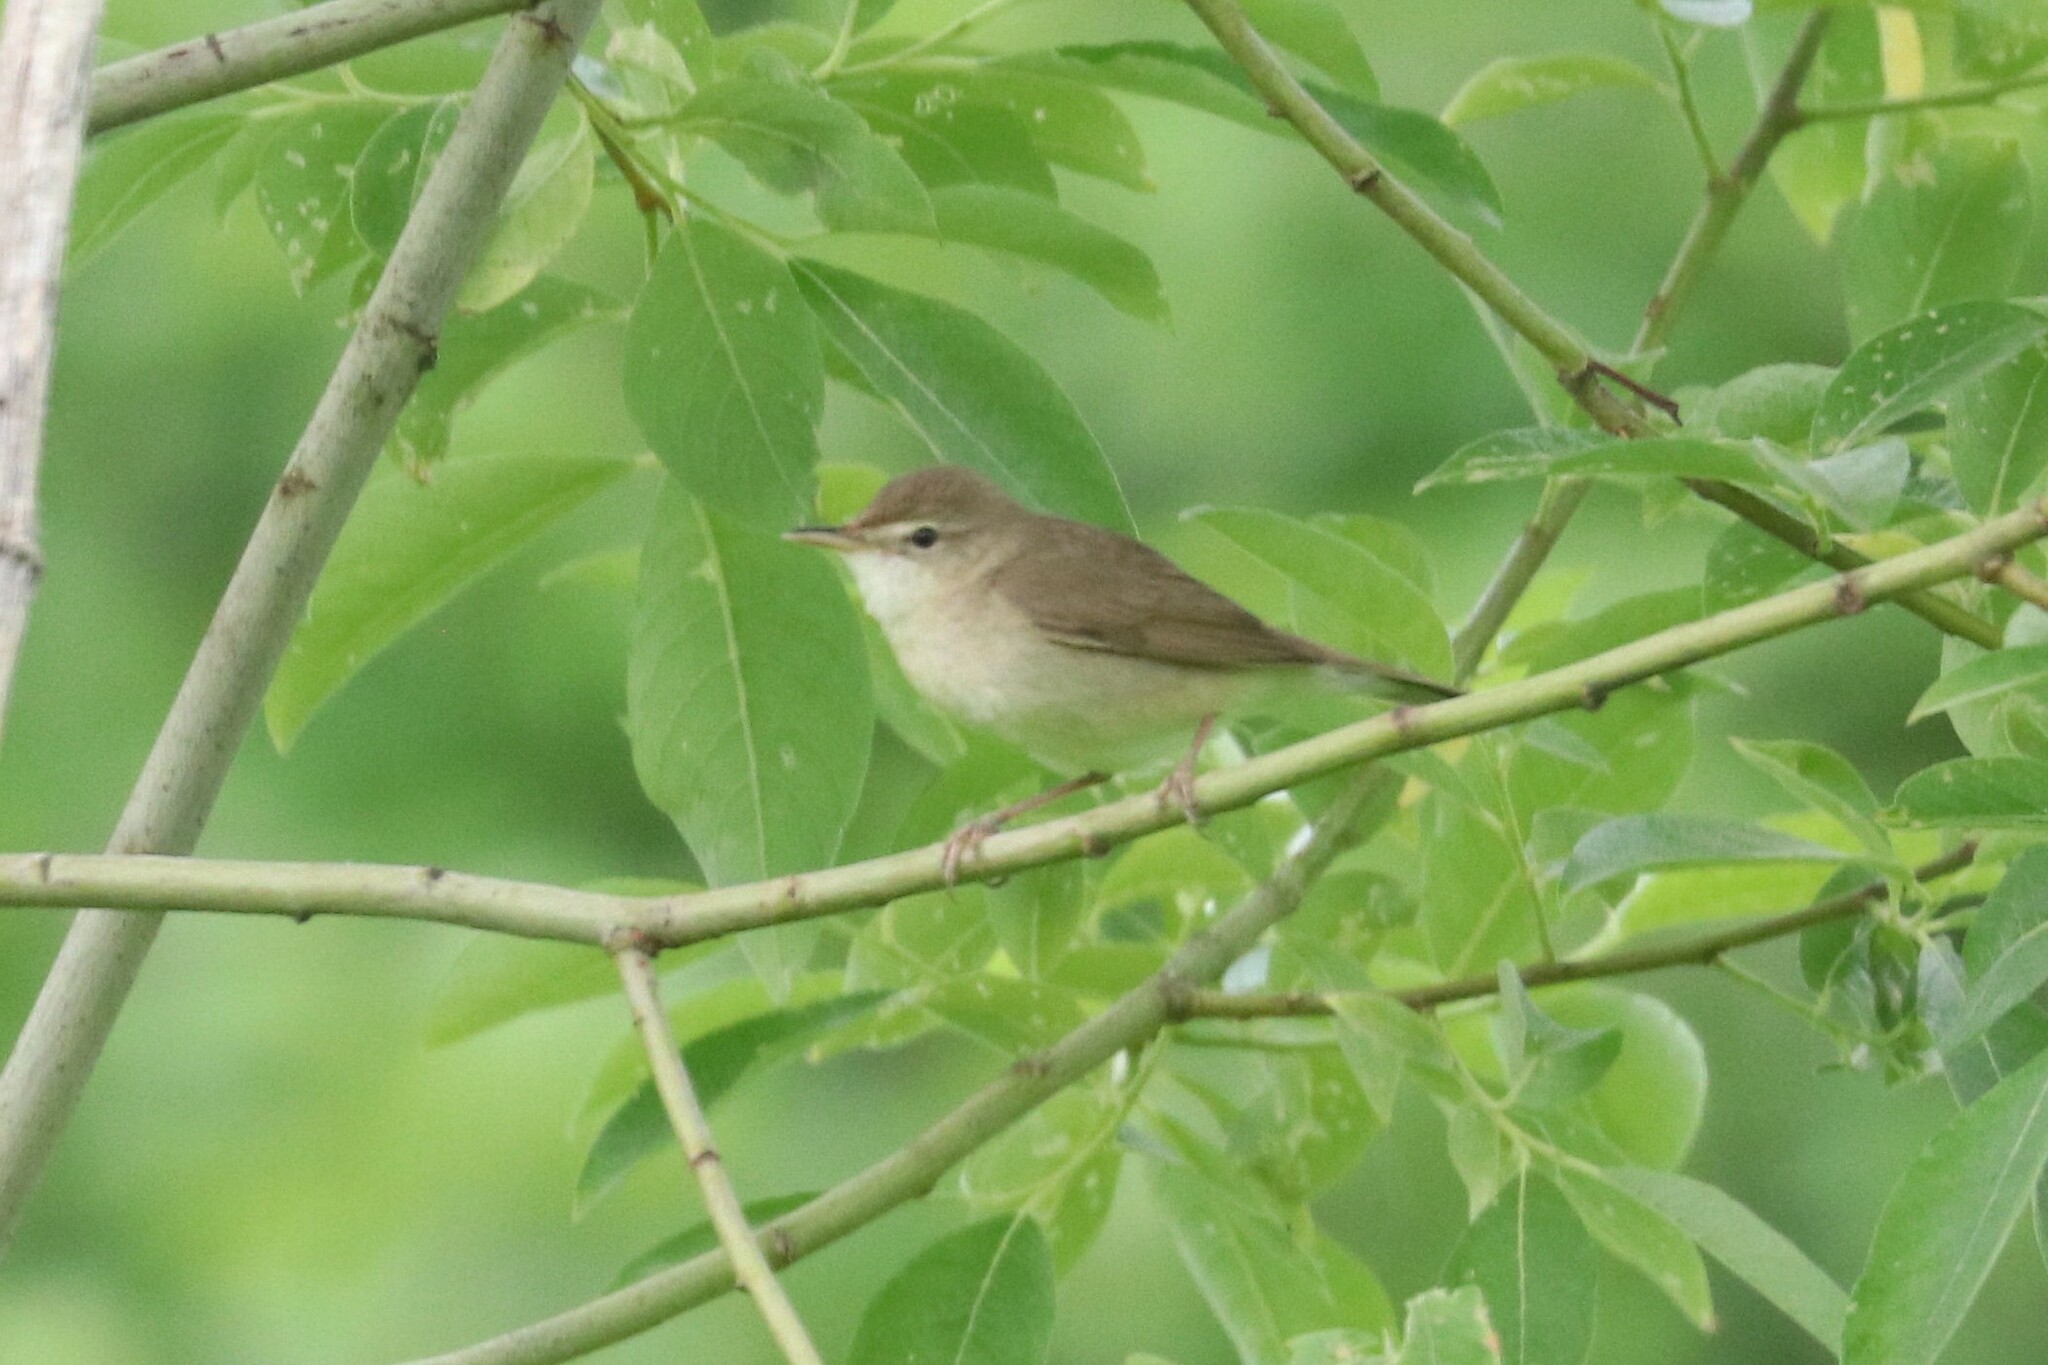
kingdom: Animalia
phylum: Chordata
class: Aves
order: Passeriformes
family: Acrocephalidae
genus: Acrocephalus
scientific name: Acrocephalus dumetorum
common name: Blyth's reed warbler
